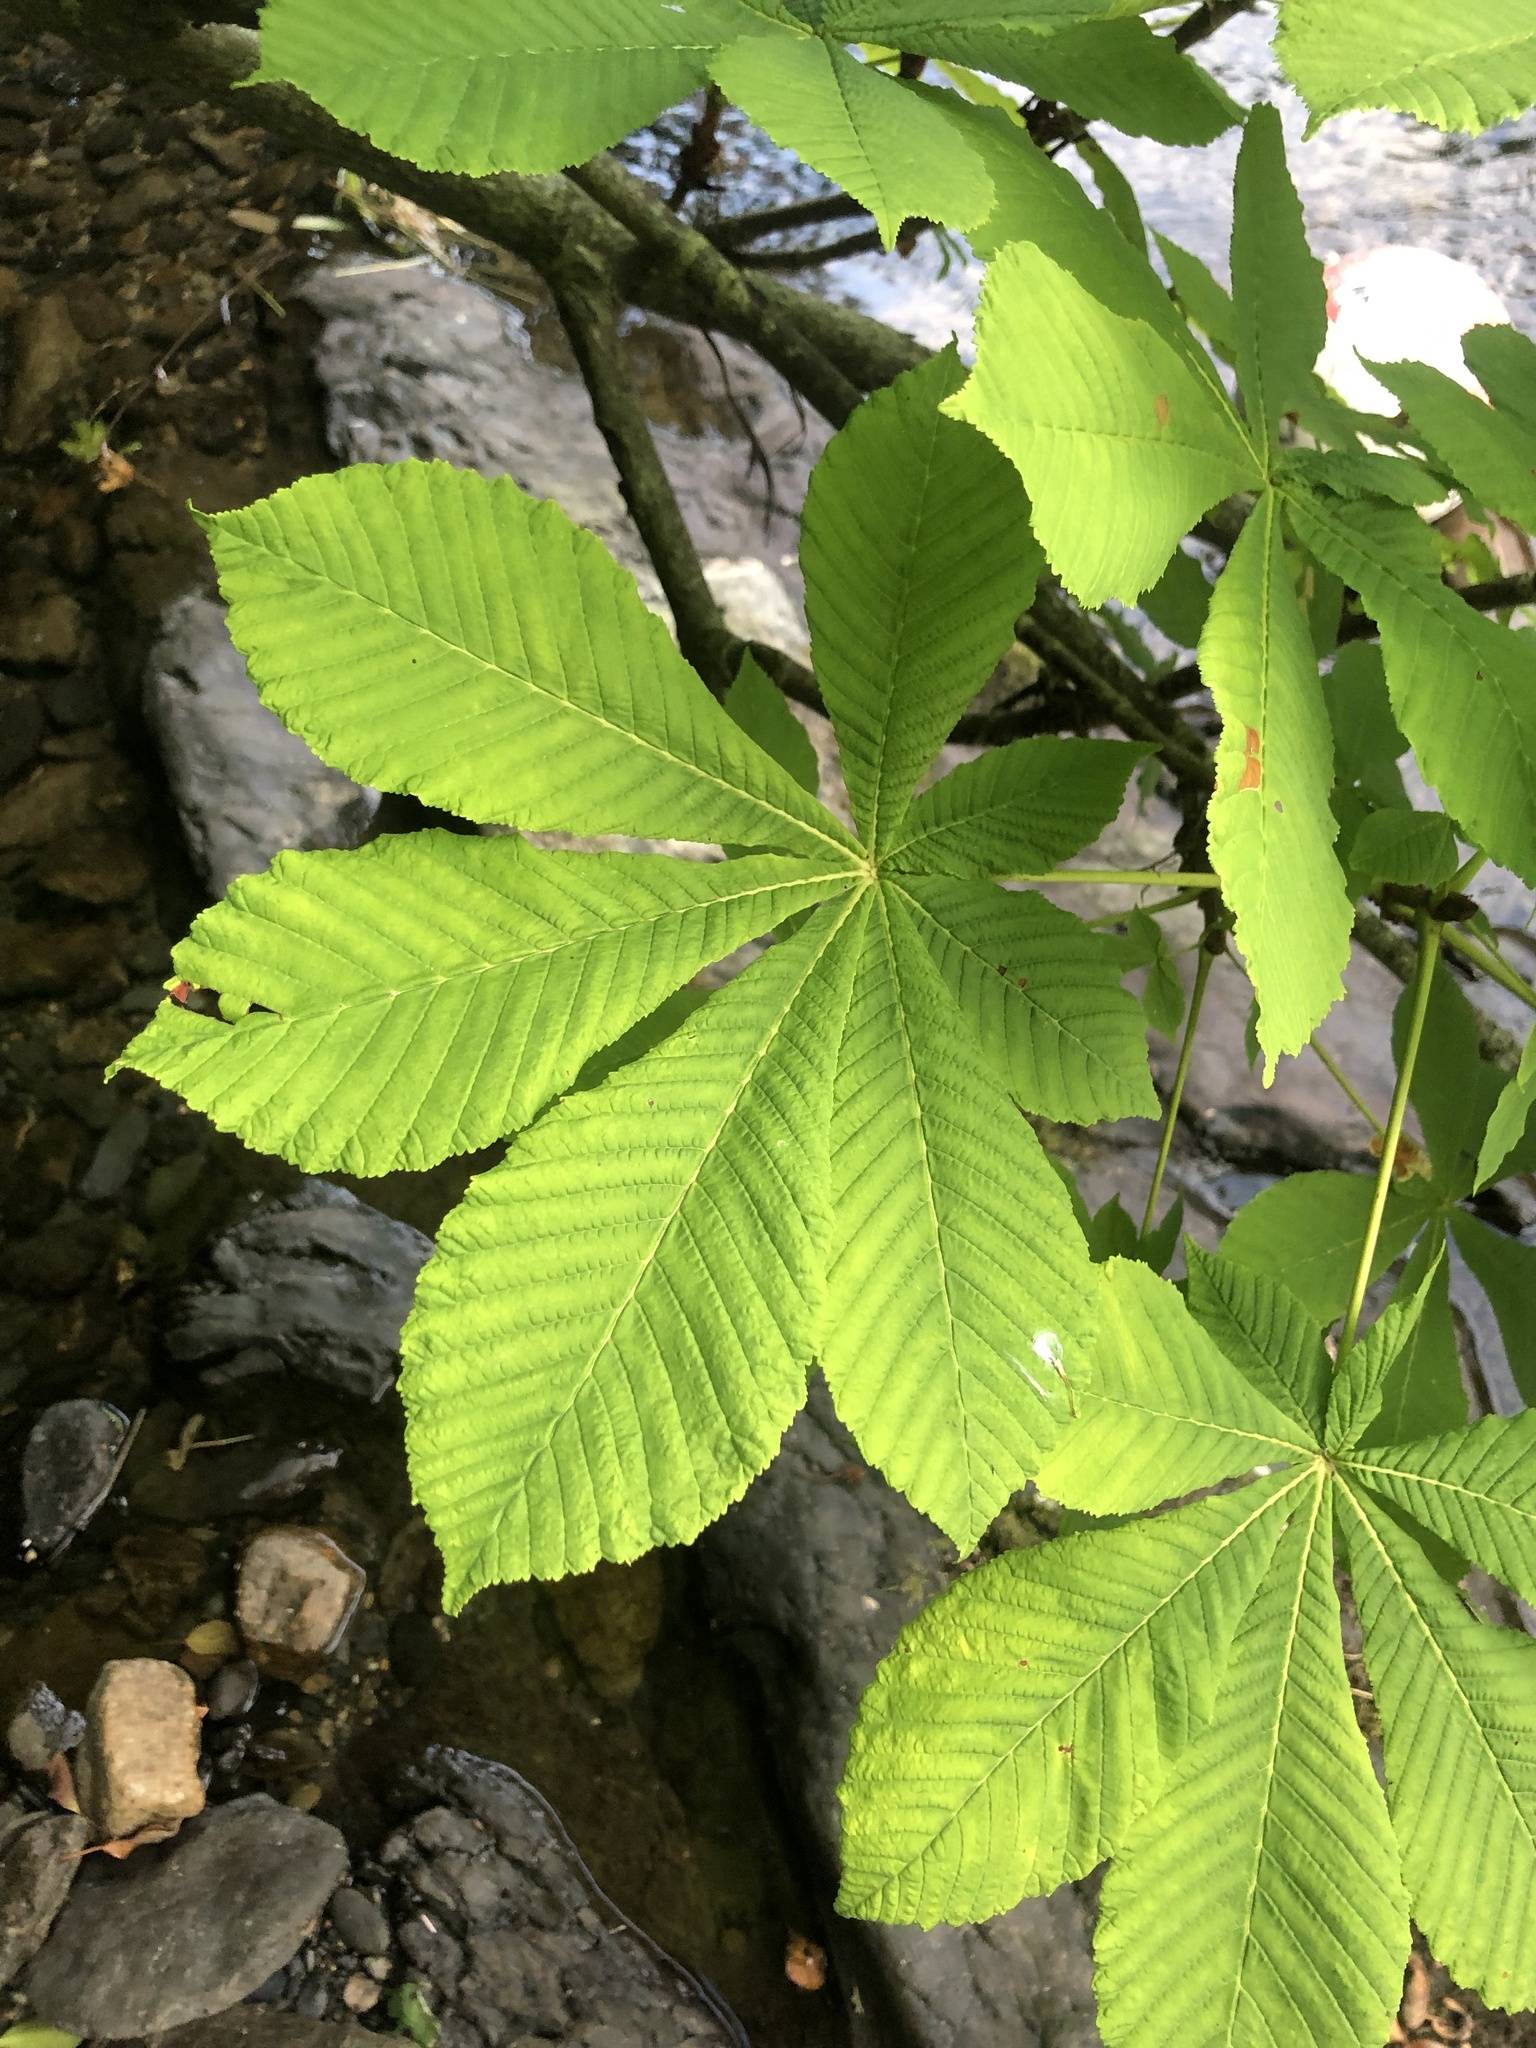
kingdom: Plantae
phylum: Tracheophyta
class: Magnoliopsida
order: Sapindales
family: Sapindaceae
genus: Aesculus
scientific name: Aesculus hippocastanum
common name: Horse-chestnut
